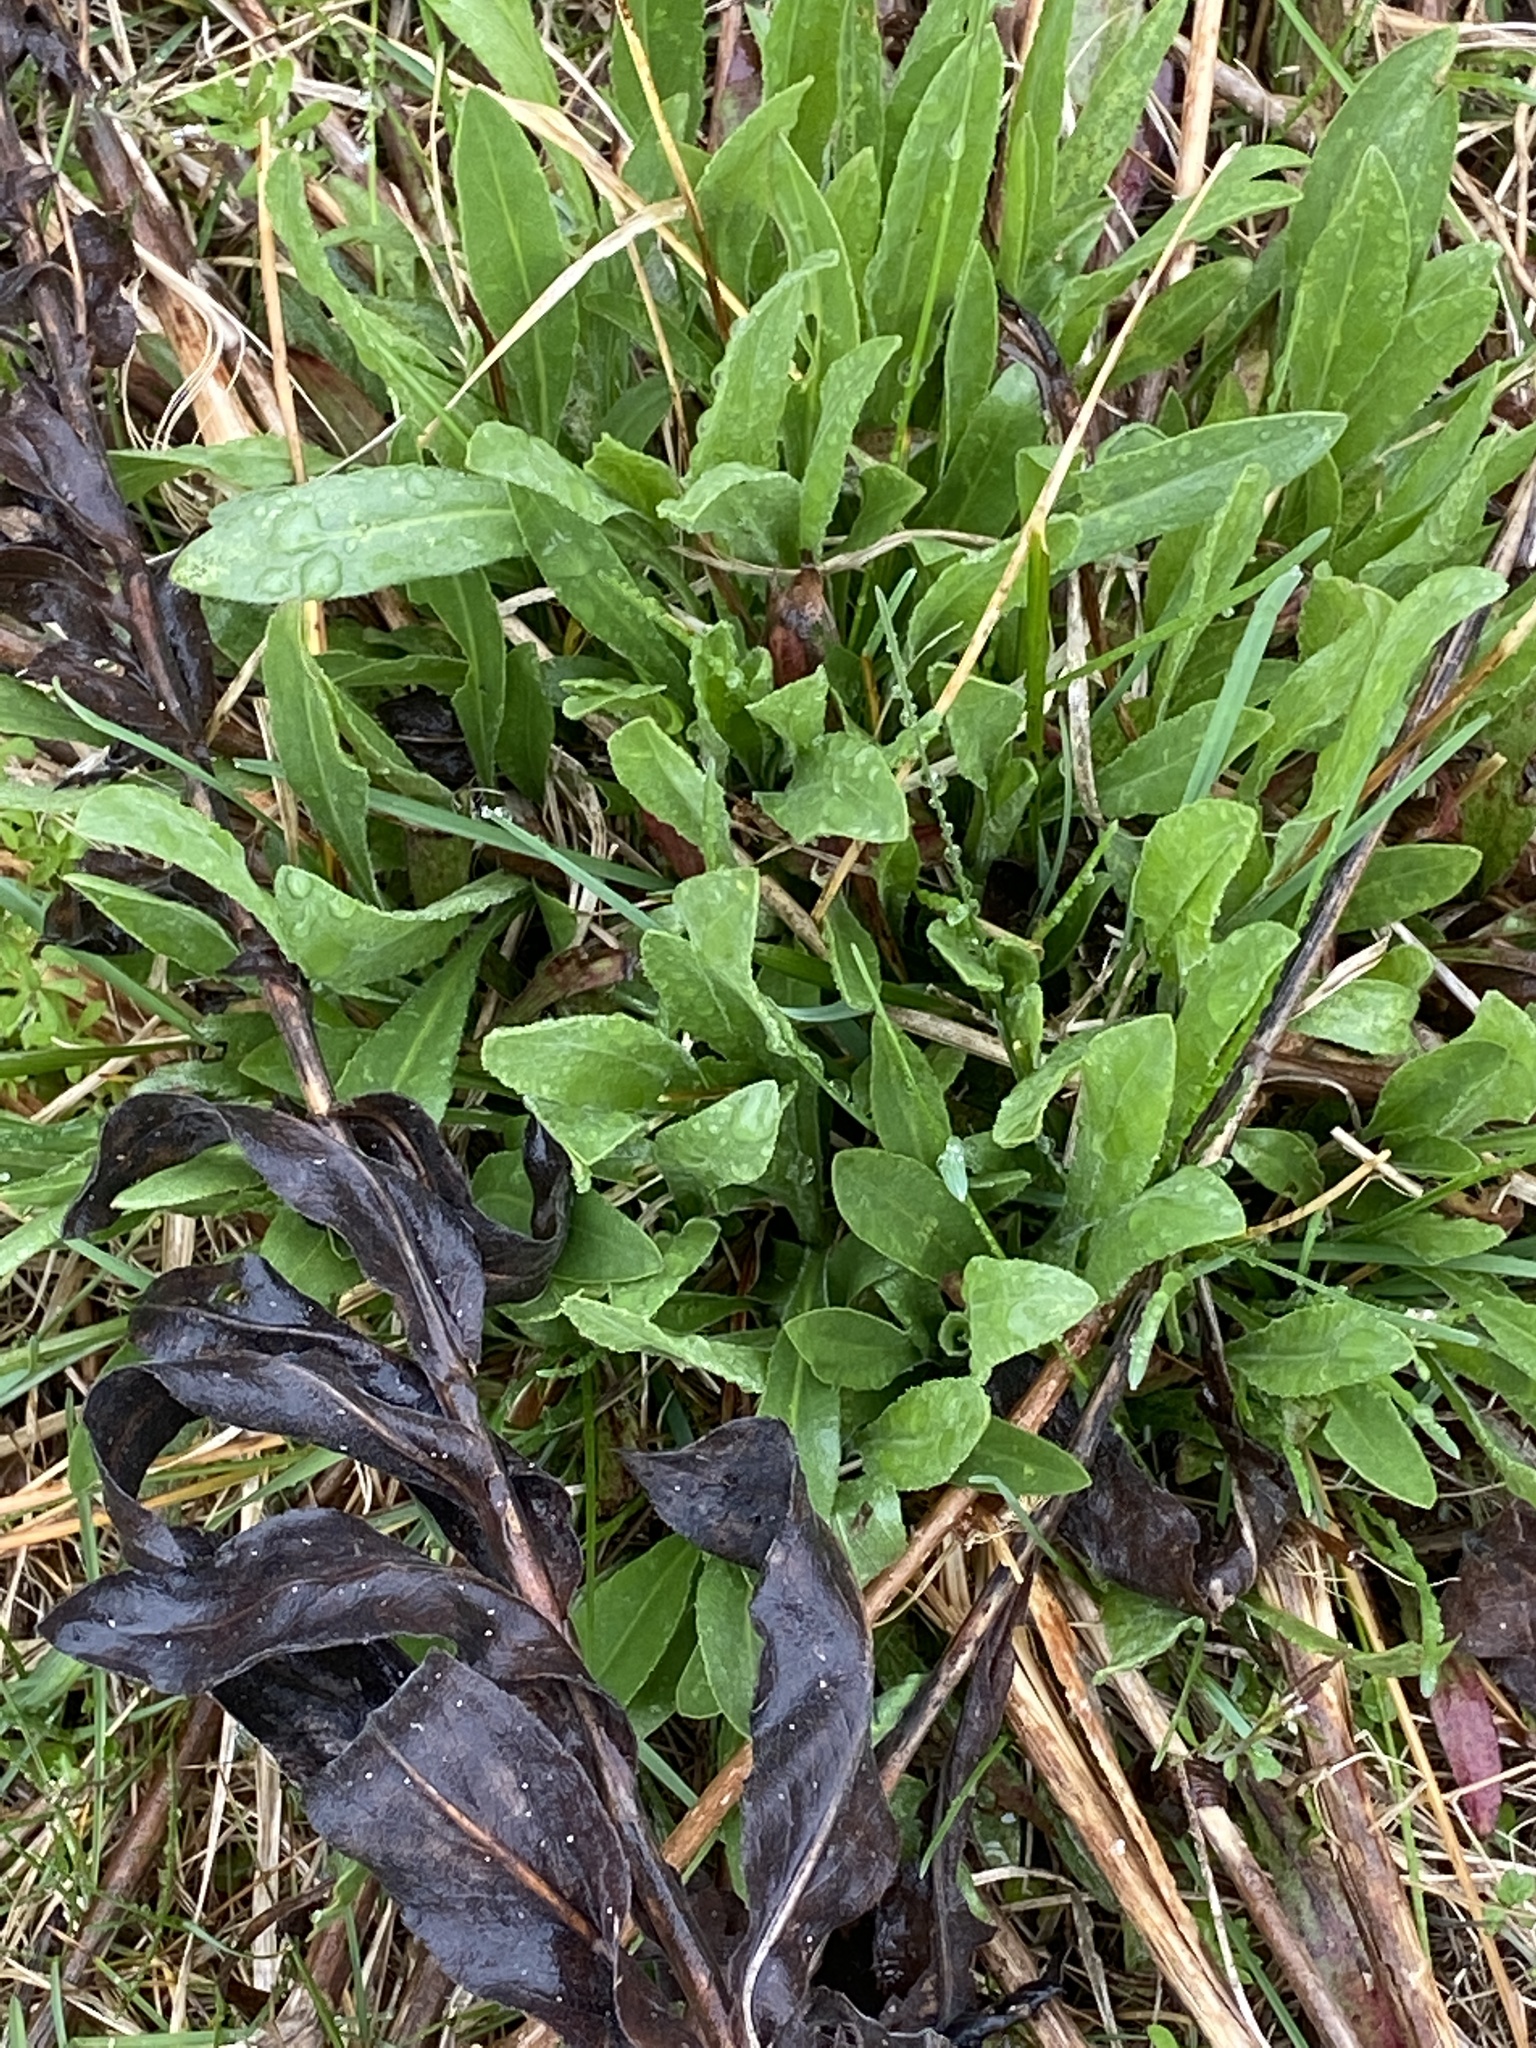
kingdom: Plantae
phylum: Tracheophyta
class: Magnoliopsida
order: Asterales
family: Asteraceae
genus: Solidago
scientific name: Solidago rigida
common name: Rigid goldenrod
